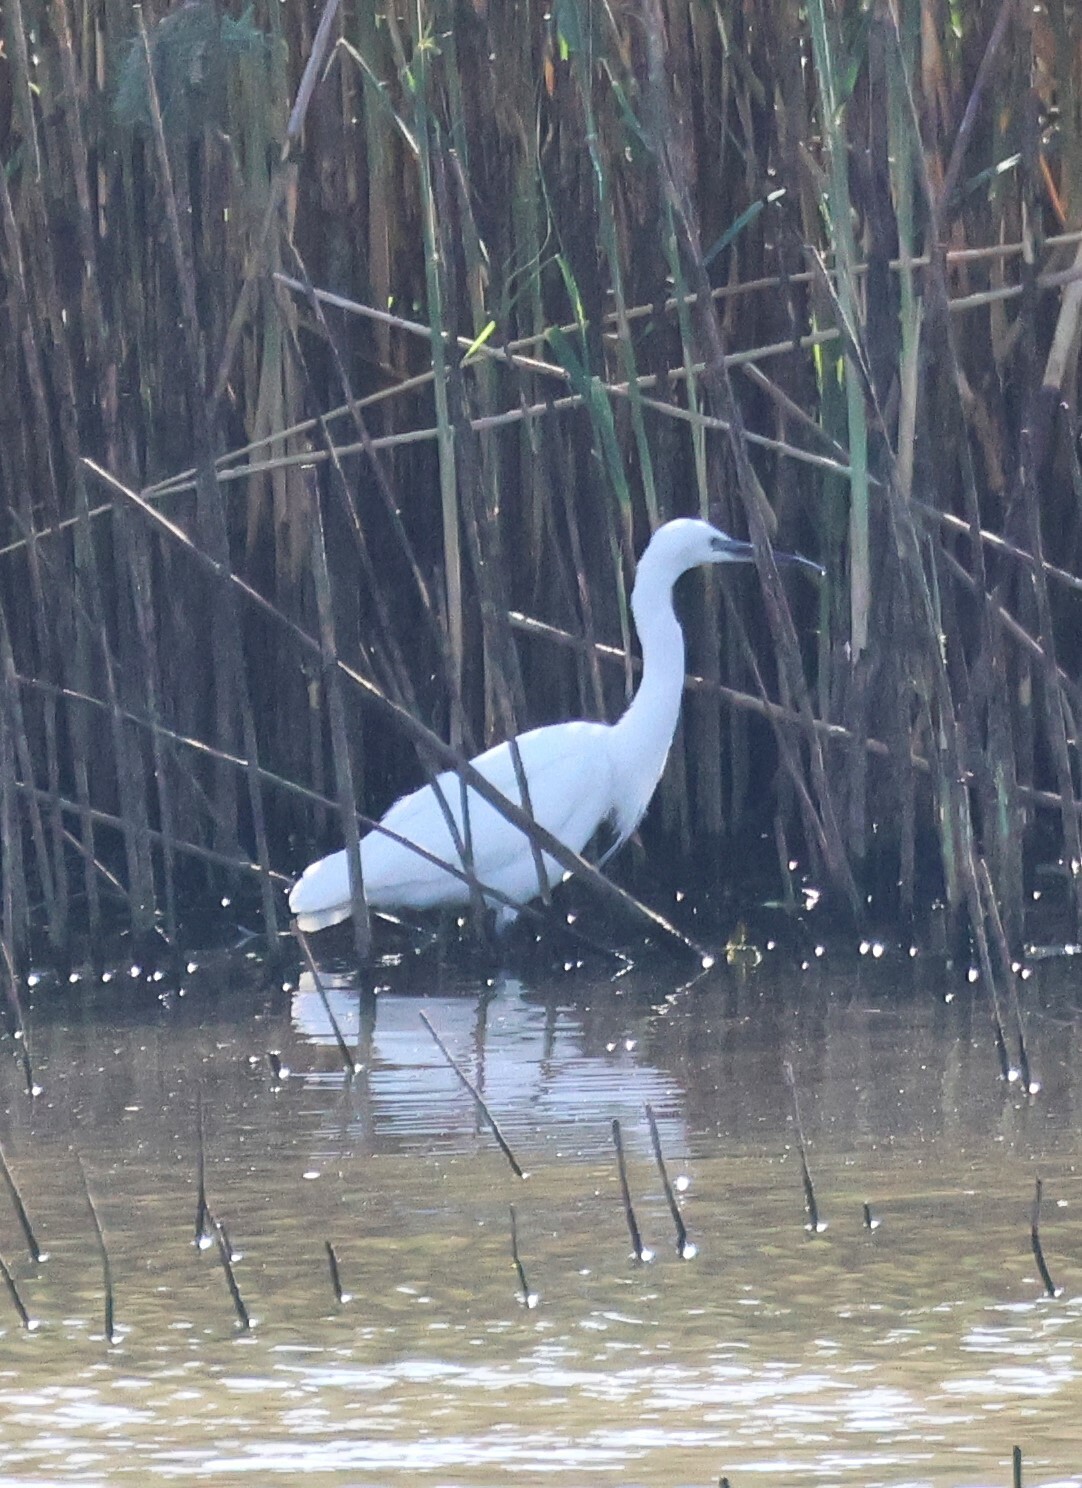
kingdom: Animalia
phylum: Chordata
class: Aves
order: Pelecaniformes
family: Ardeidae
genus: Egretta
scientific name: Egretta garzetta
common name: Little egret
